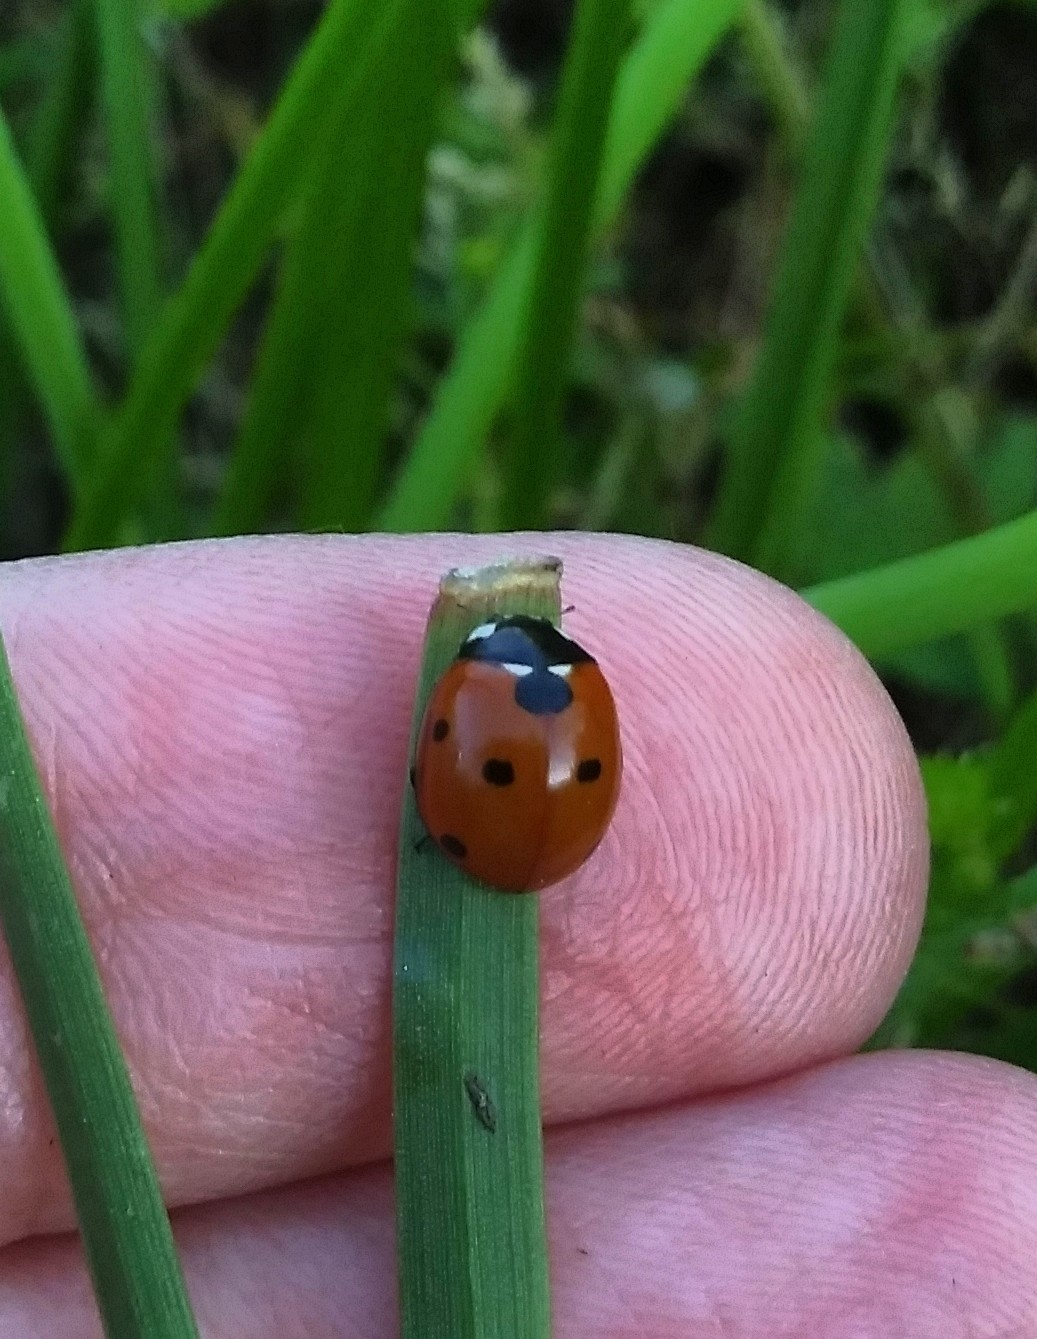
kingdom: Animalia
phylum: Arthropoda
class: Insecta
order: Coleoptera
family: Coccinellidae
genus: Coccinella
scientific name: Coccinella septempunctata
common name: Sevenspotted lady beetle
